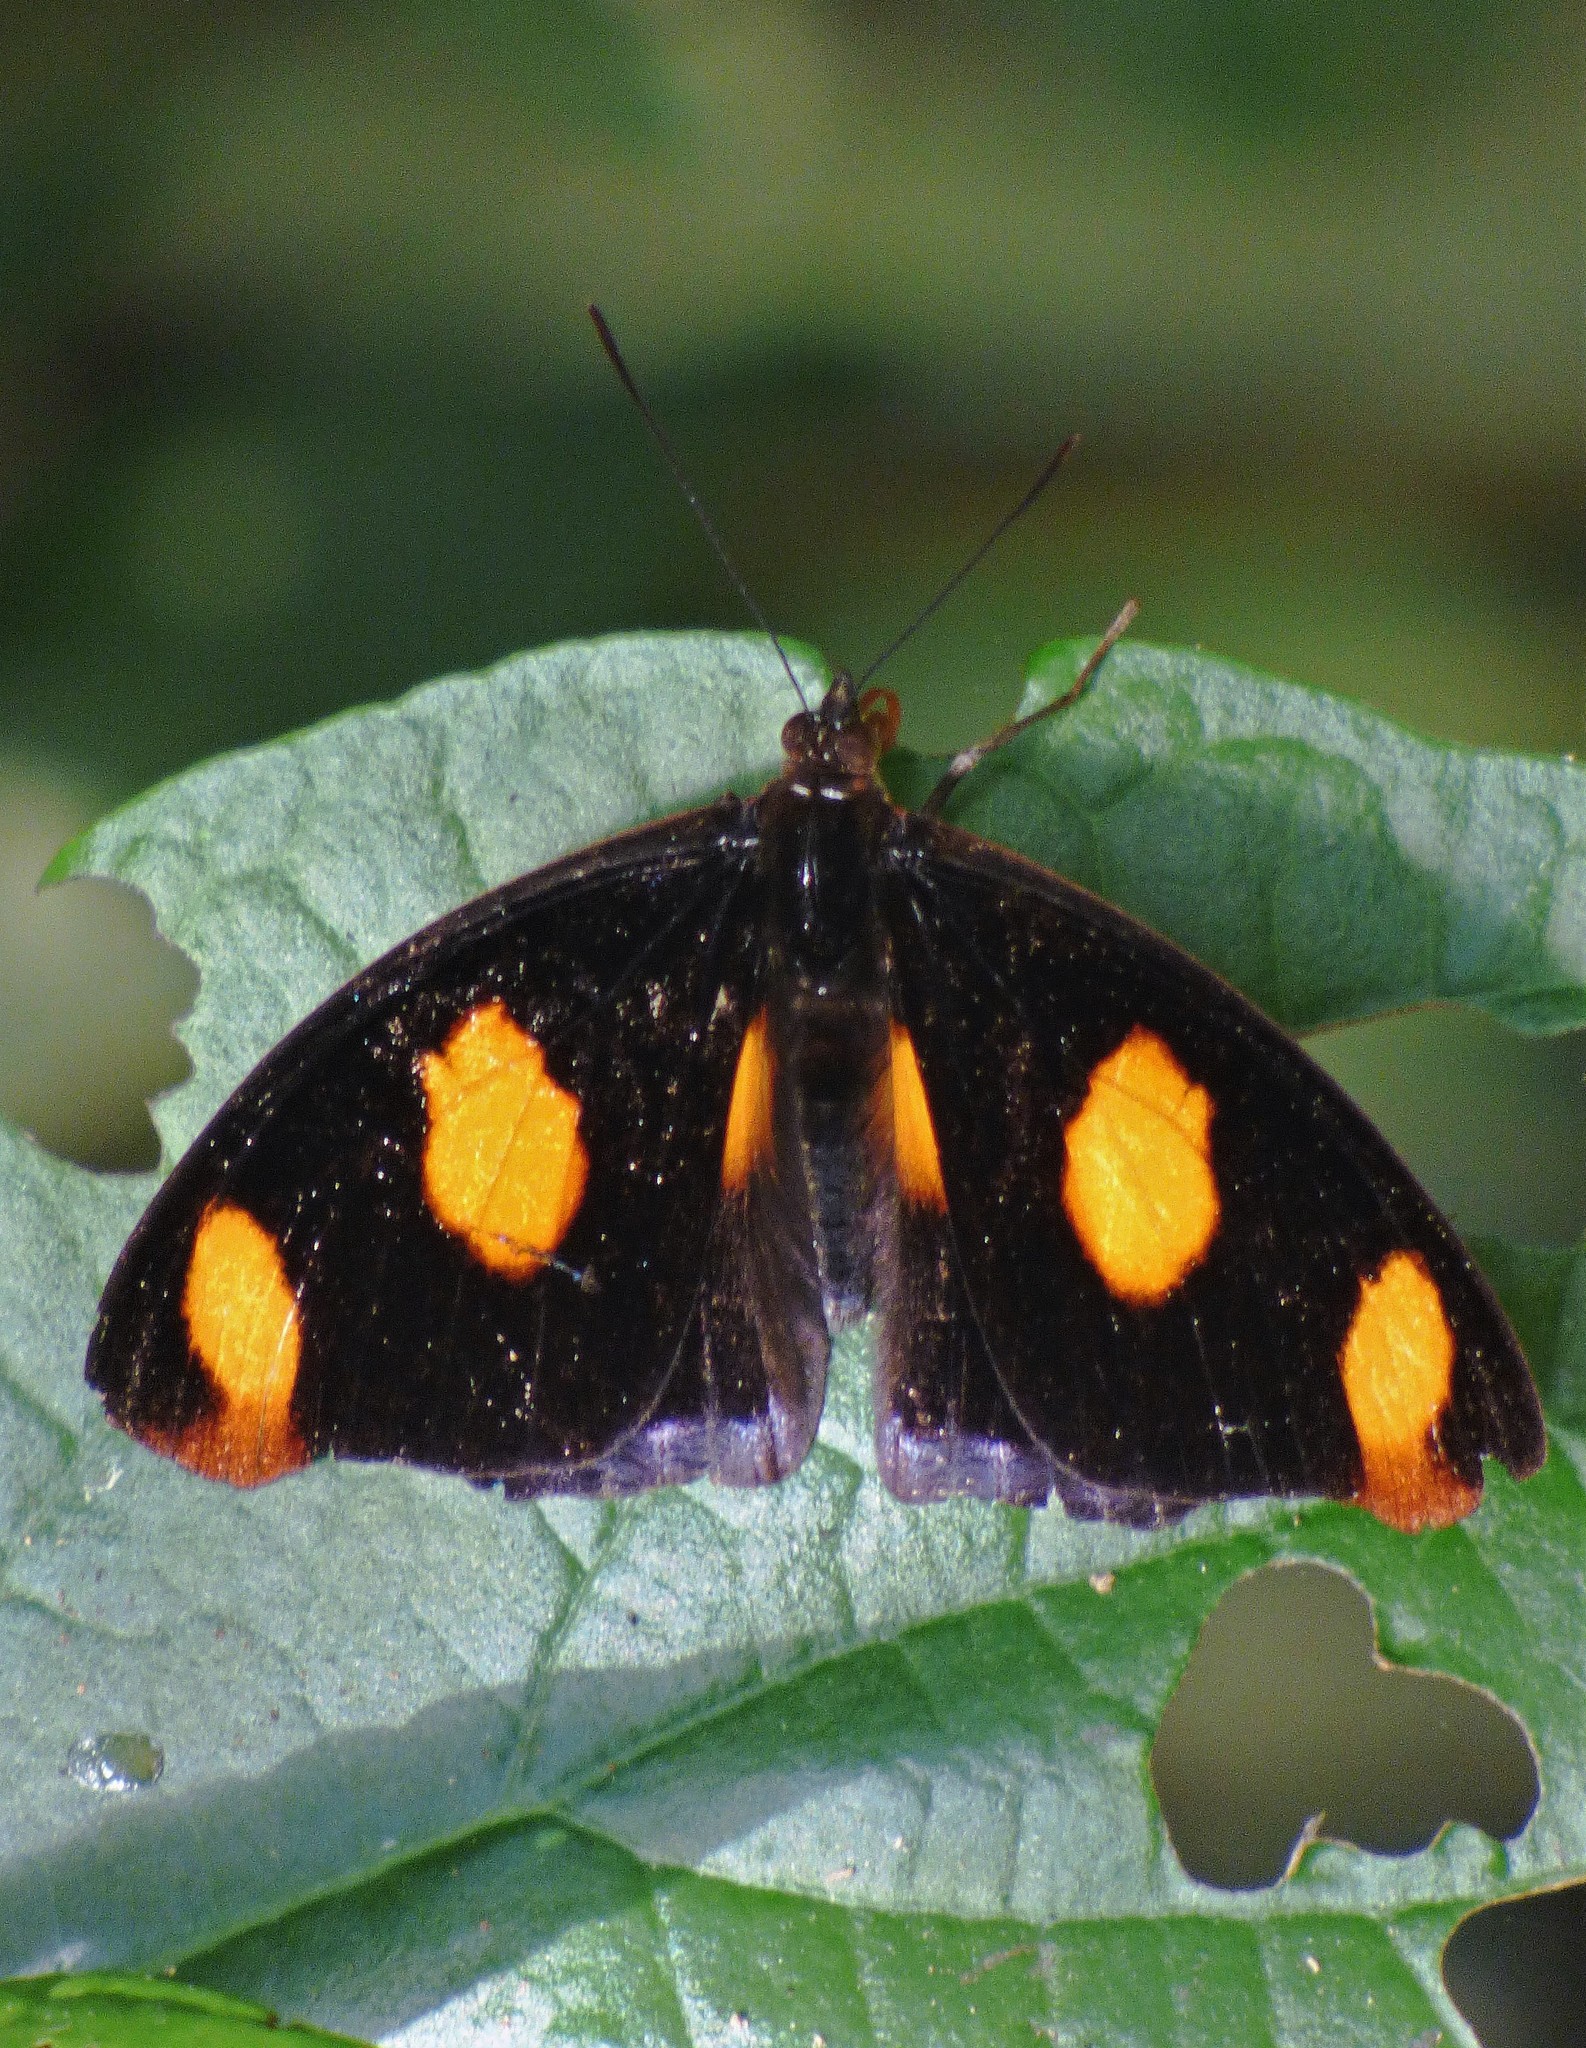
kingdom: Animalia
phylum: Arthropoda
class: Insecta
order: Lepidoptera
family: Nymphalidae
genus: Catonephele
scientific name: Catonephele numilia
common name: Blue-frosted banner
